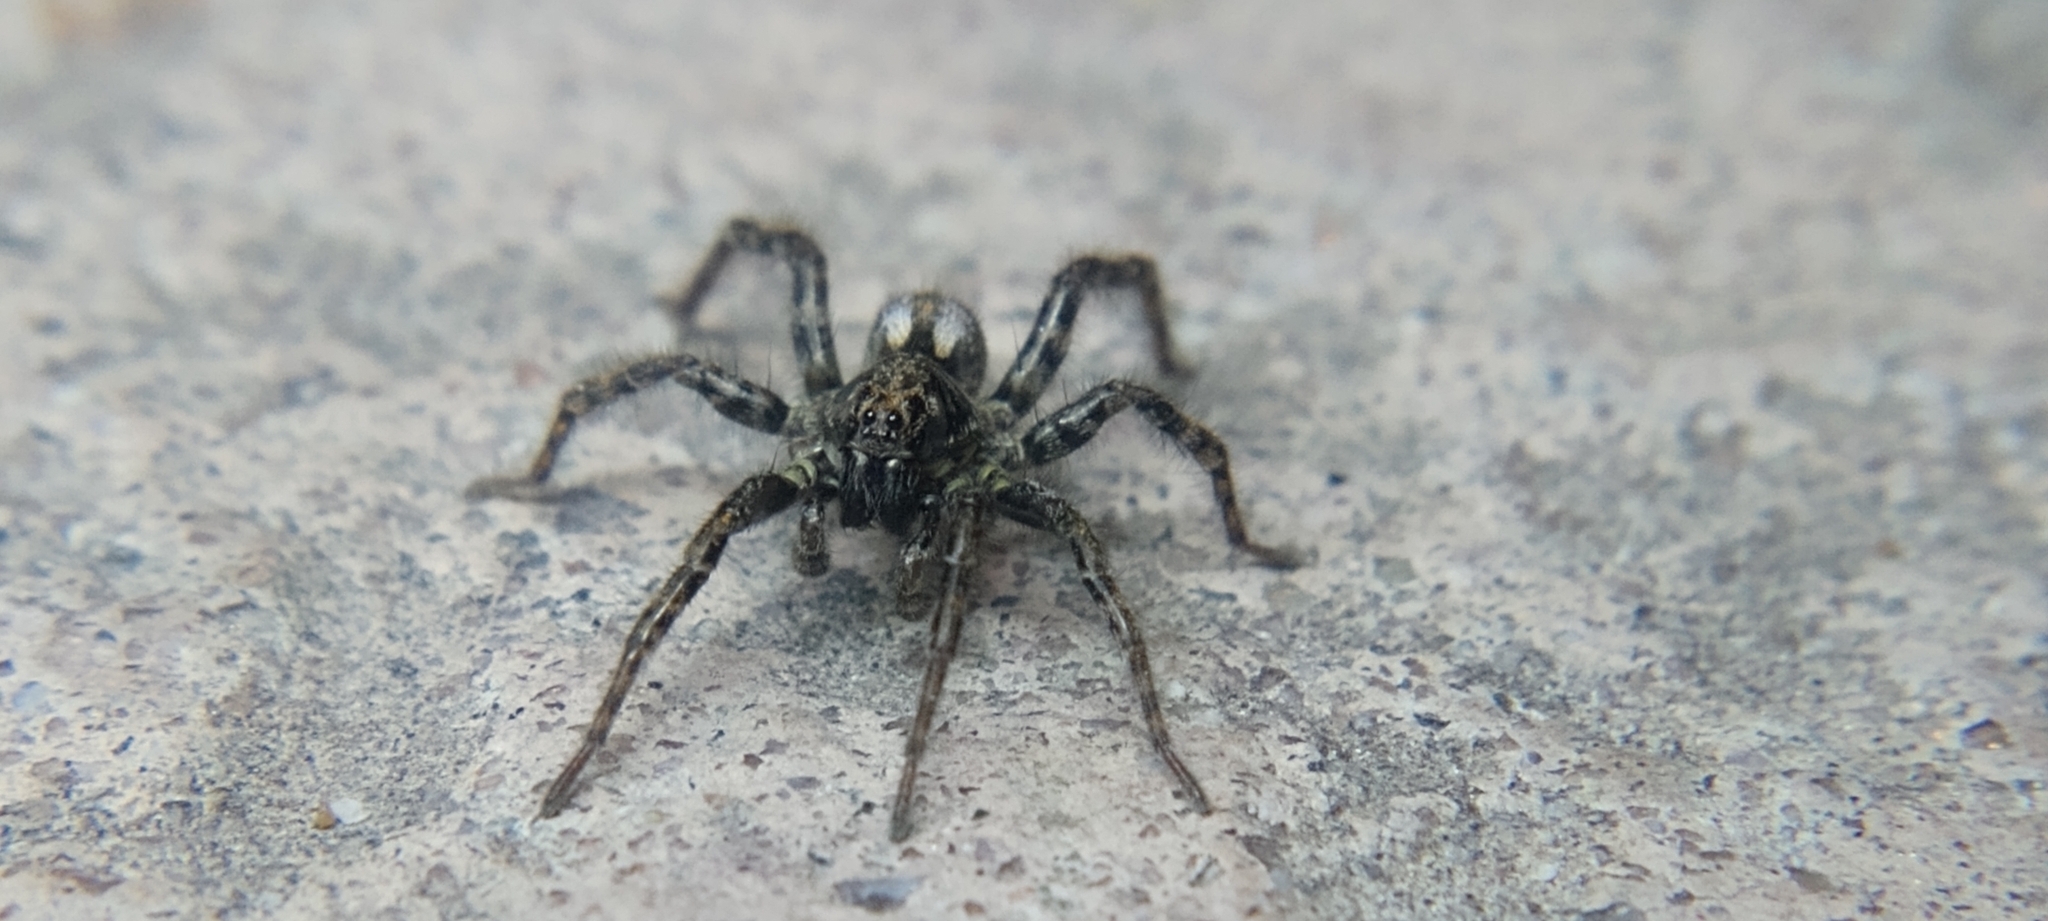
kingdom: Animalia
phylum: Arthropoda
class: Arachnida
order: Araneae
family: Lycosidae
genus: Allocosa
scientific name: Allocosa subparva
